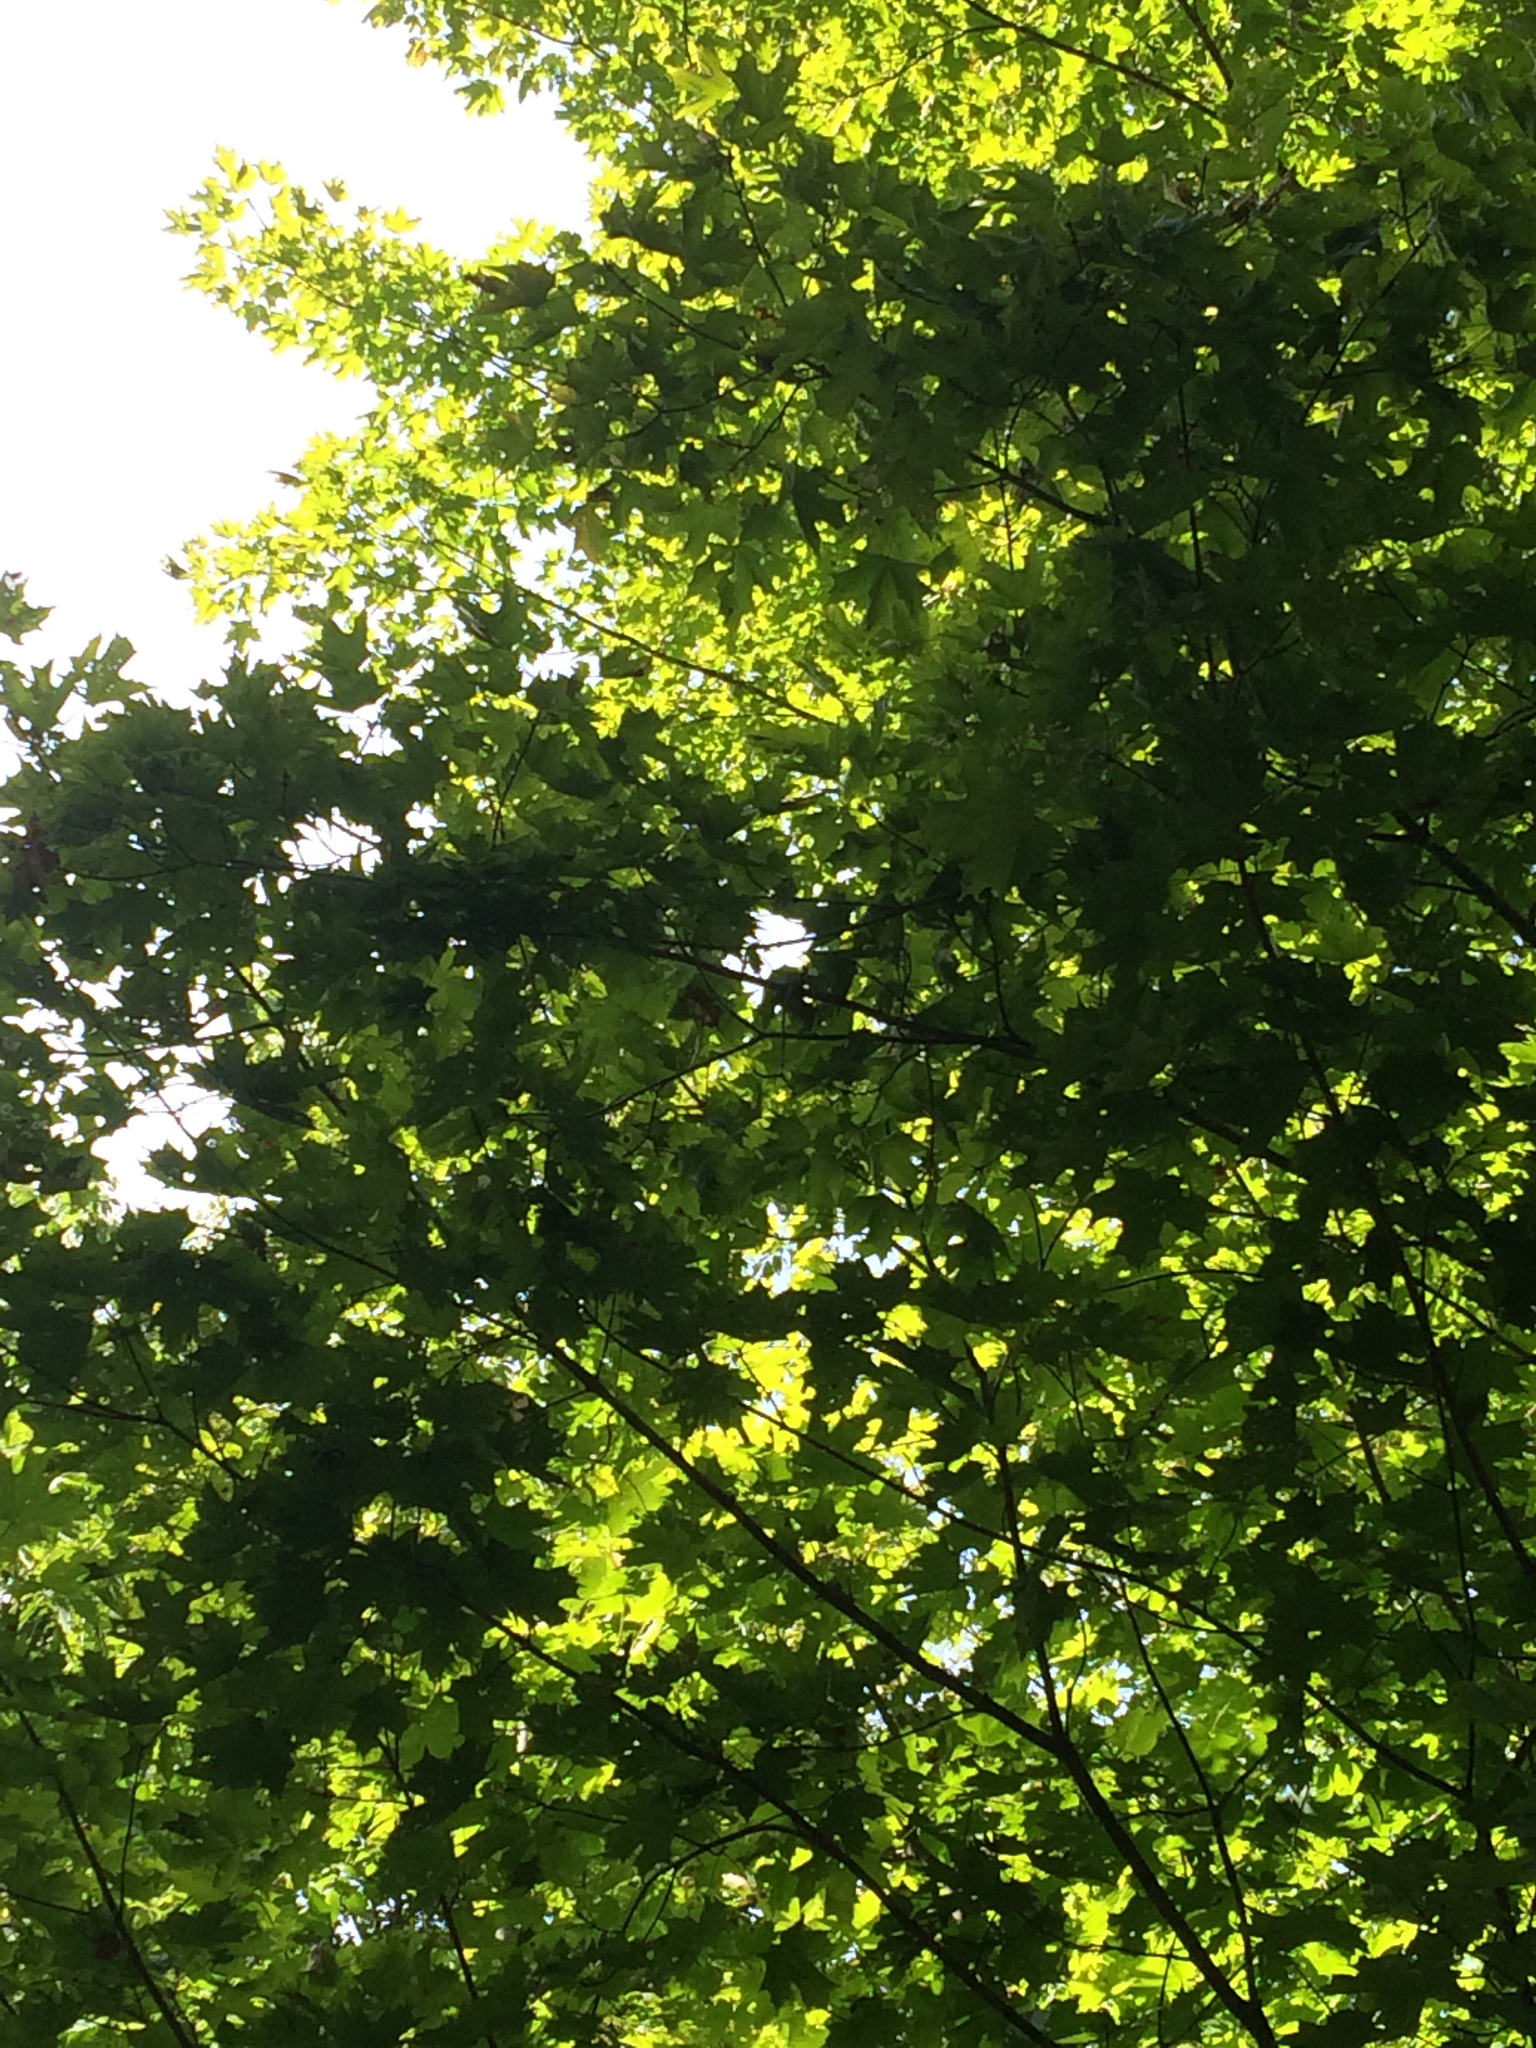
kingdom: Plantae
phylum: Tracheophyta
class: Magnoliopsida
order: Sapindales
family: Sapindaceae
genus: Acer
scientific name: Acer saccharum
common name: Sugar maple
